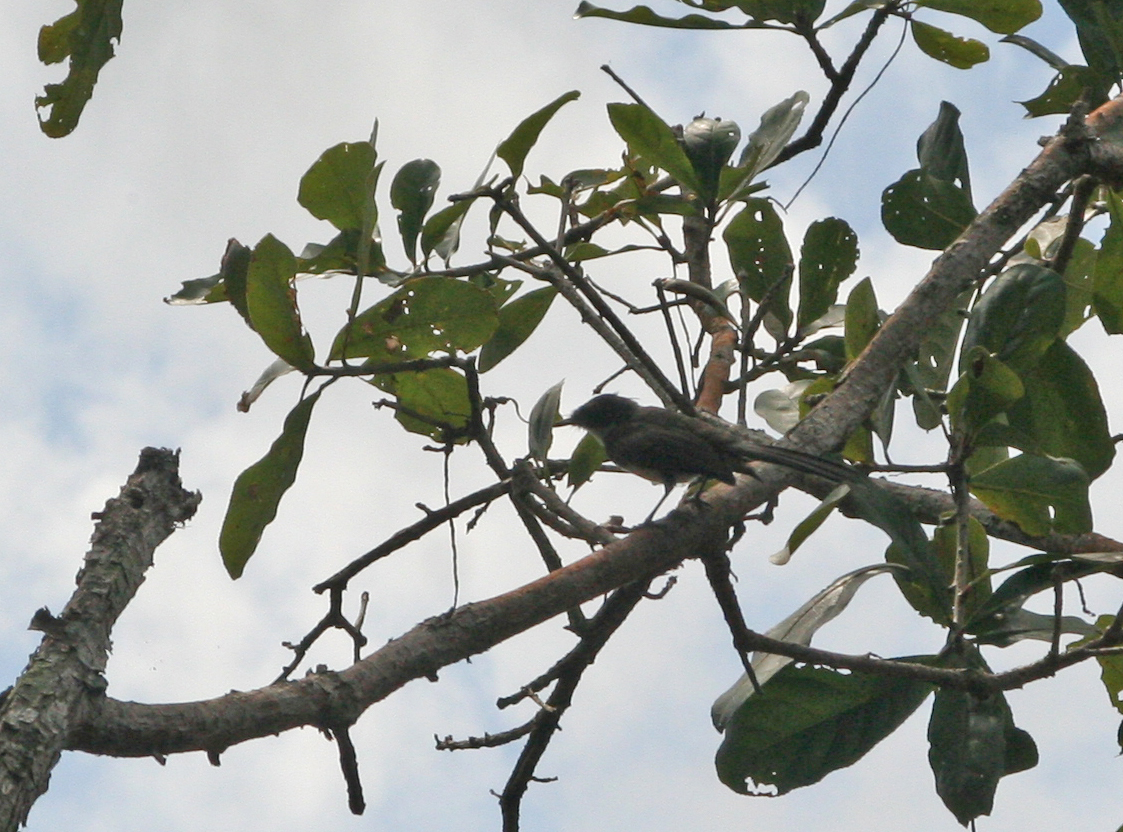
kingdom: Animalia
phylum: Chordata
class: Aves
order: Passeriformes
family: Rhipiduridae
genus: Rhipidura
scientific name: Rhipidura javanica
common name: Pied fantail
